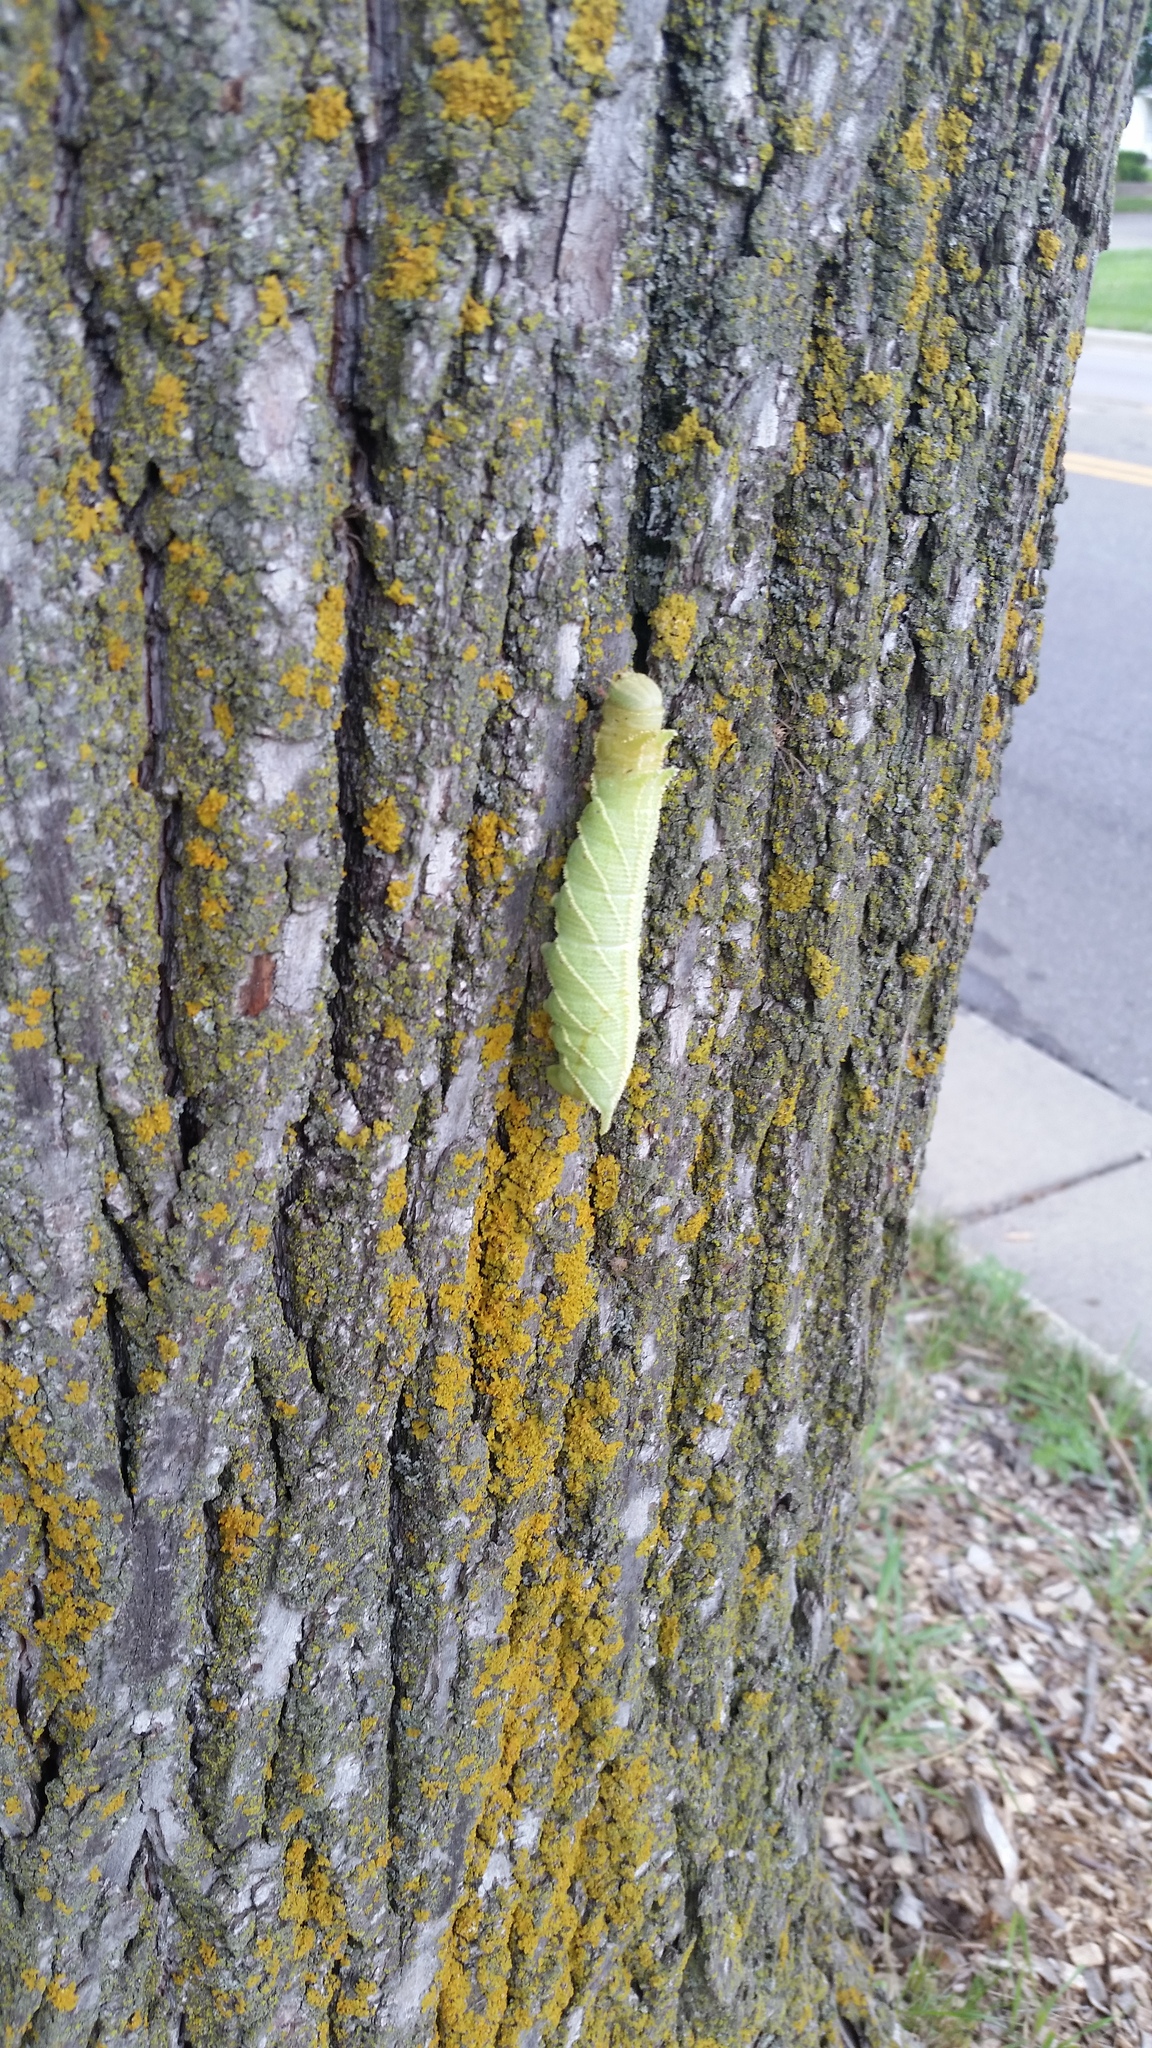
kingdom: Animalia
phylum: Arthropoda
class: Insecta
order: Lepidoptera
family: Sphingidae
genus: Ceratomia
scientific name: Ceratomia amyntor
